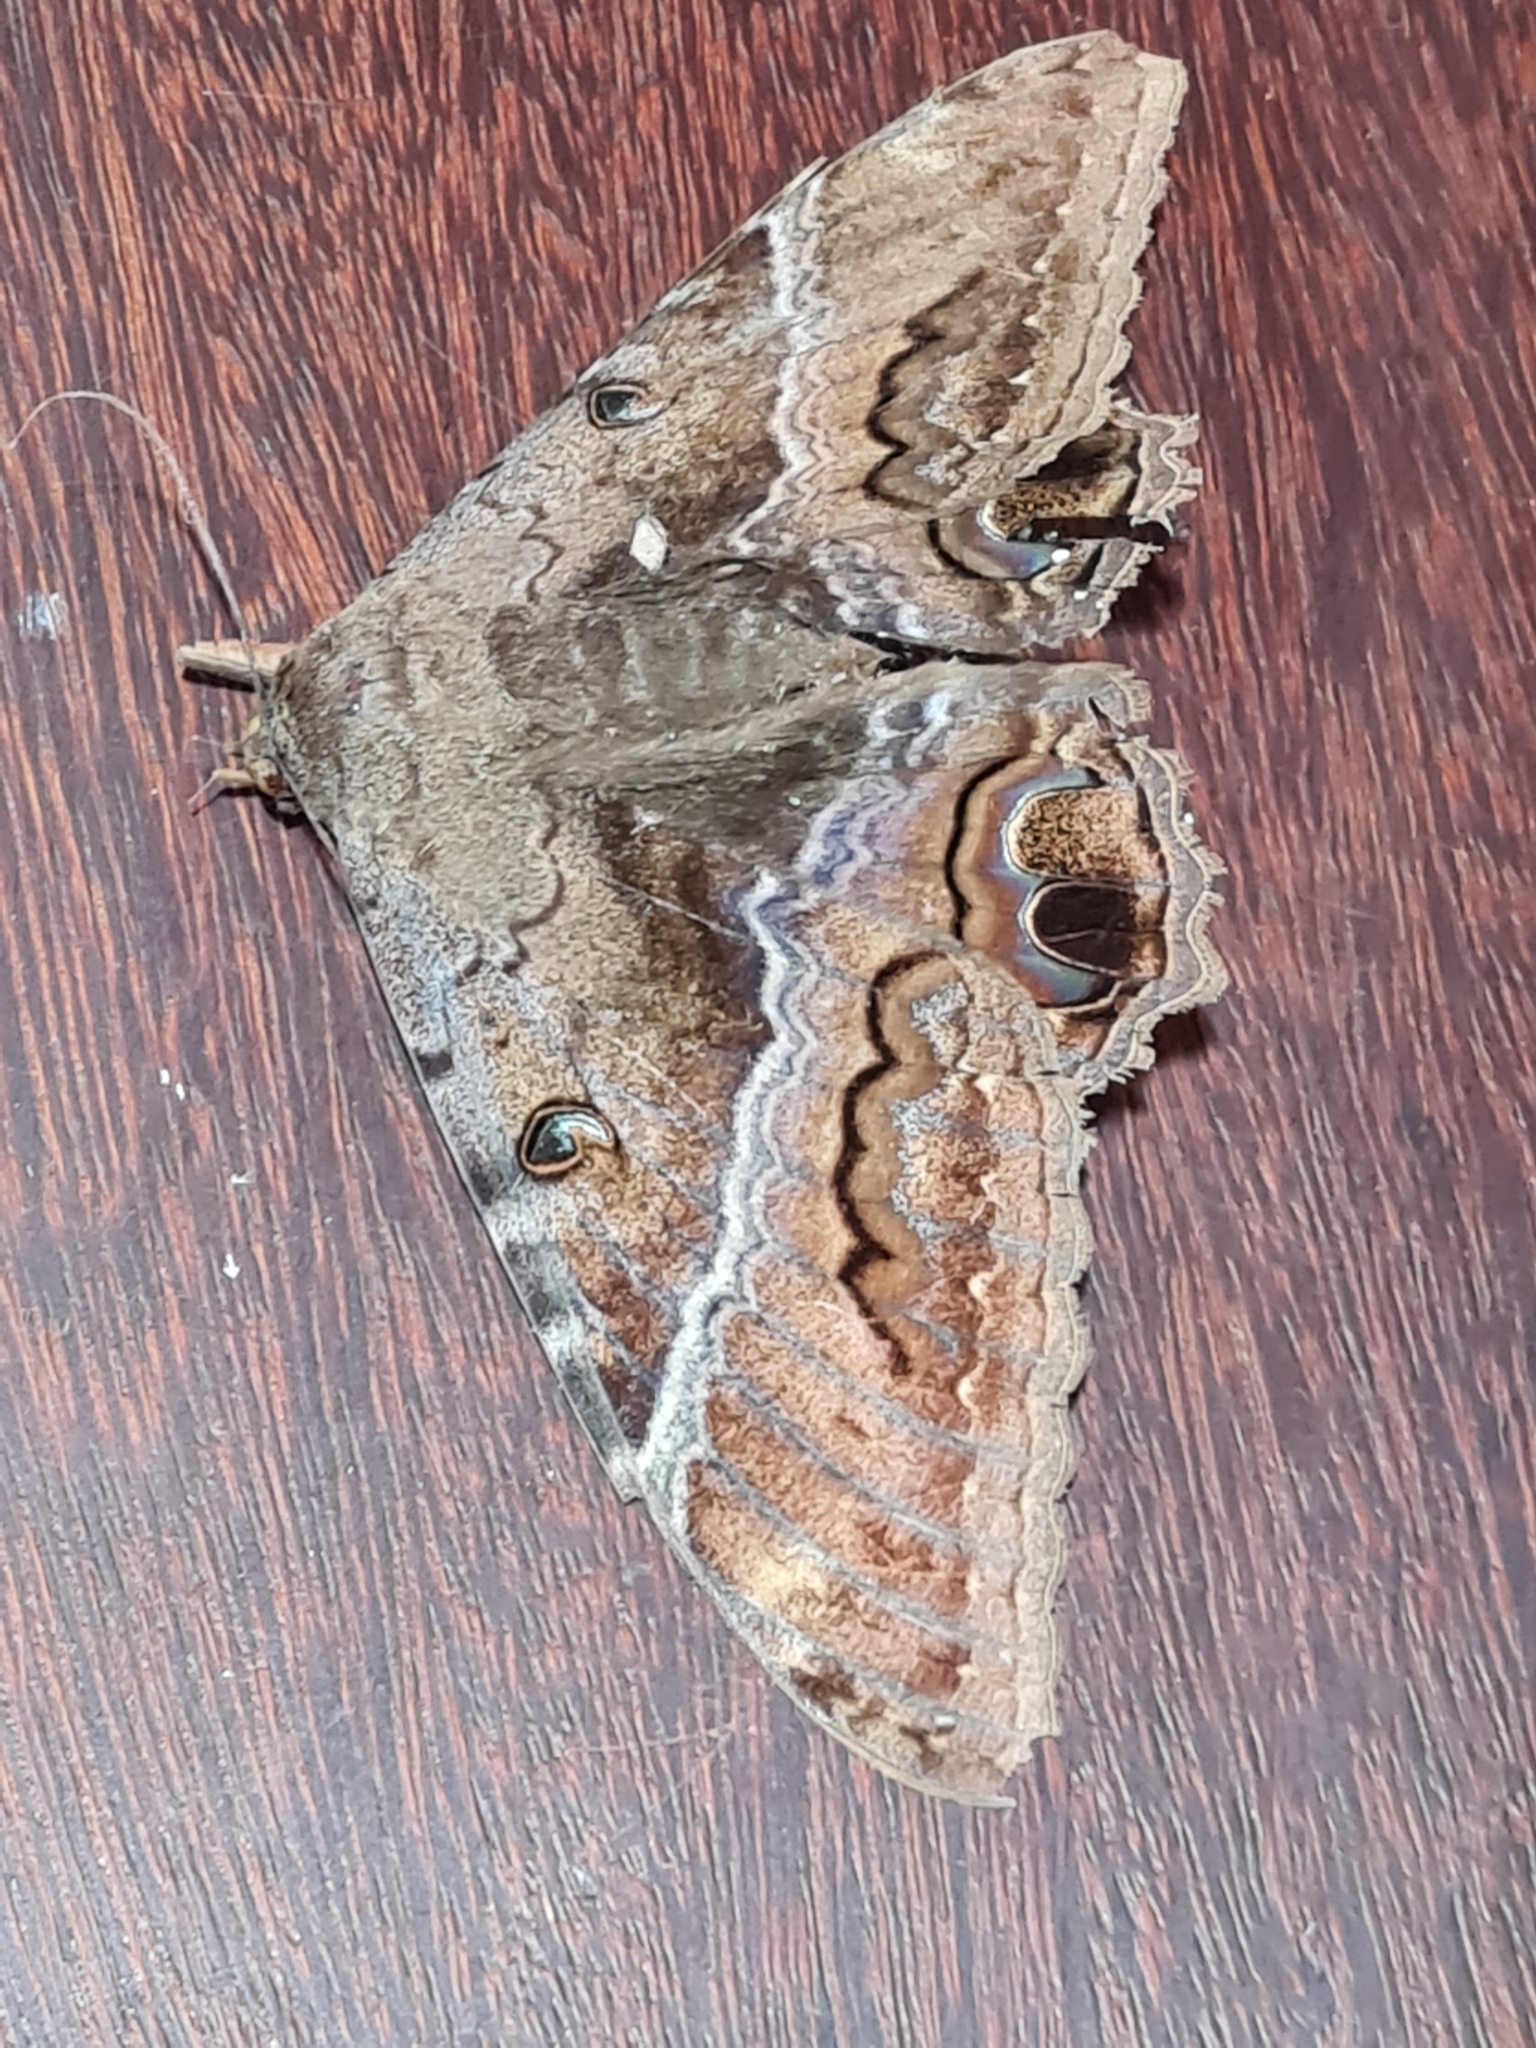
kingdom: Animalia
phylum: Arthropoda
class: Insecta
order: Lepidoptera
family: Erebidae
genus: Ascalapha
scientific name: Ascalapha odorata
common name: Black witch
